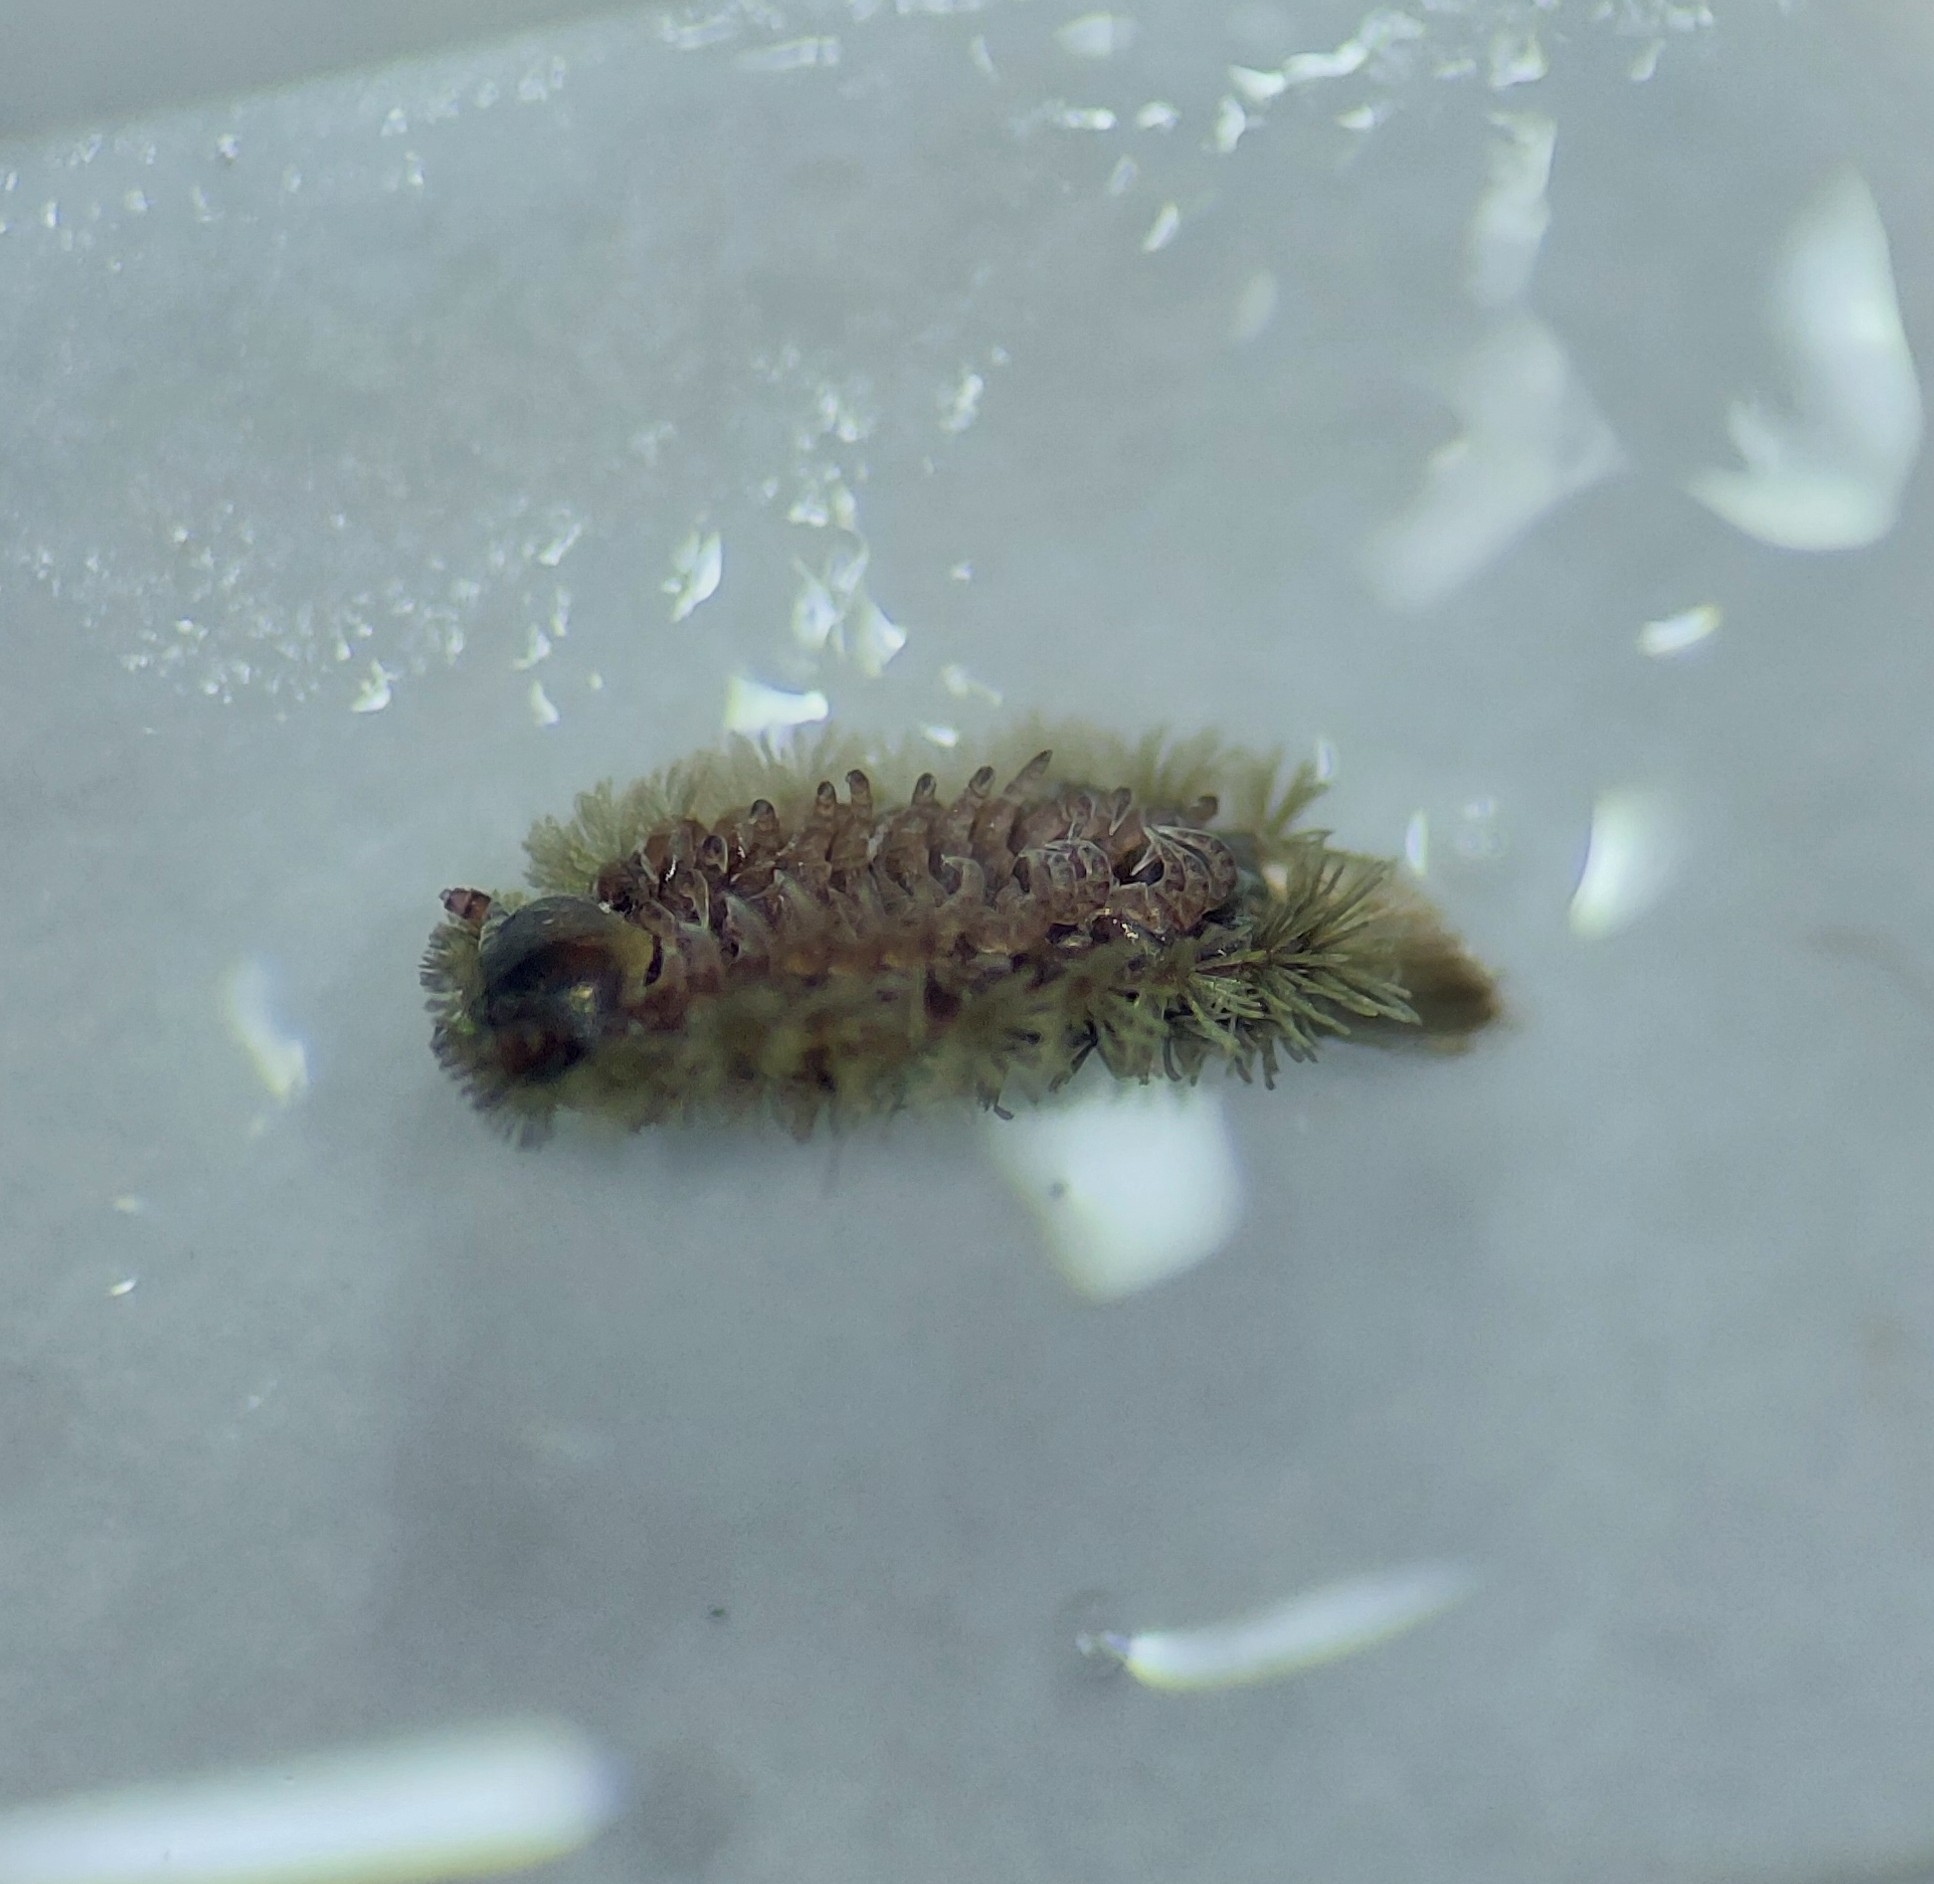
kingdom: Animalia
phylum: Arthropoda
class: Diplopoda
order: Polyxenida
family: Polyxenidae
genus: Polyxenus
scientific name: Polyxenus lagurus
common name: Bristly millipede
